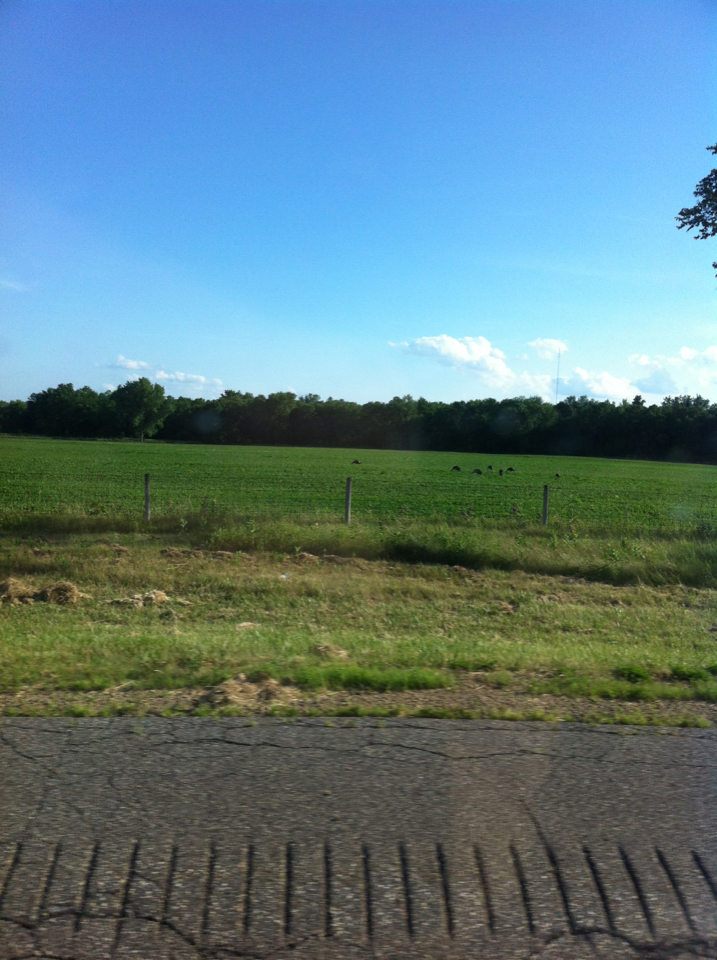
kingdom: Animalia
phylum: Chordata
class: Aves
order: Galliformes
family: Phasianidae
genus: Meleagris
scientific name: Meleagris gallopavo
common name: Wild turkey
